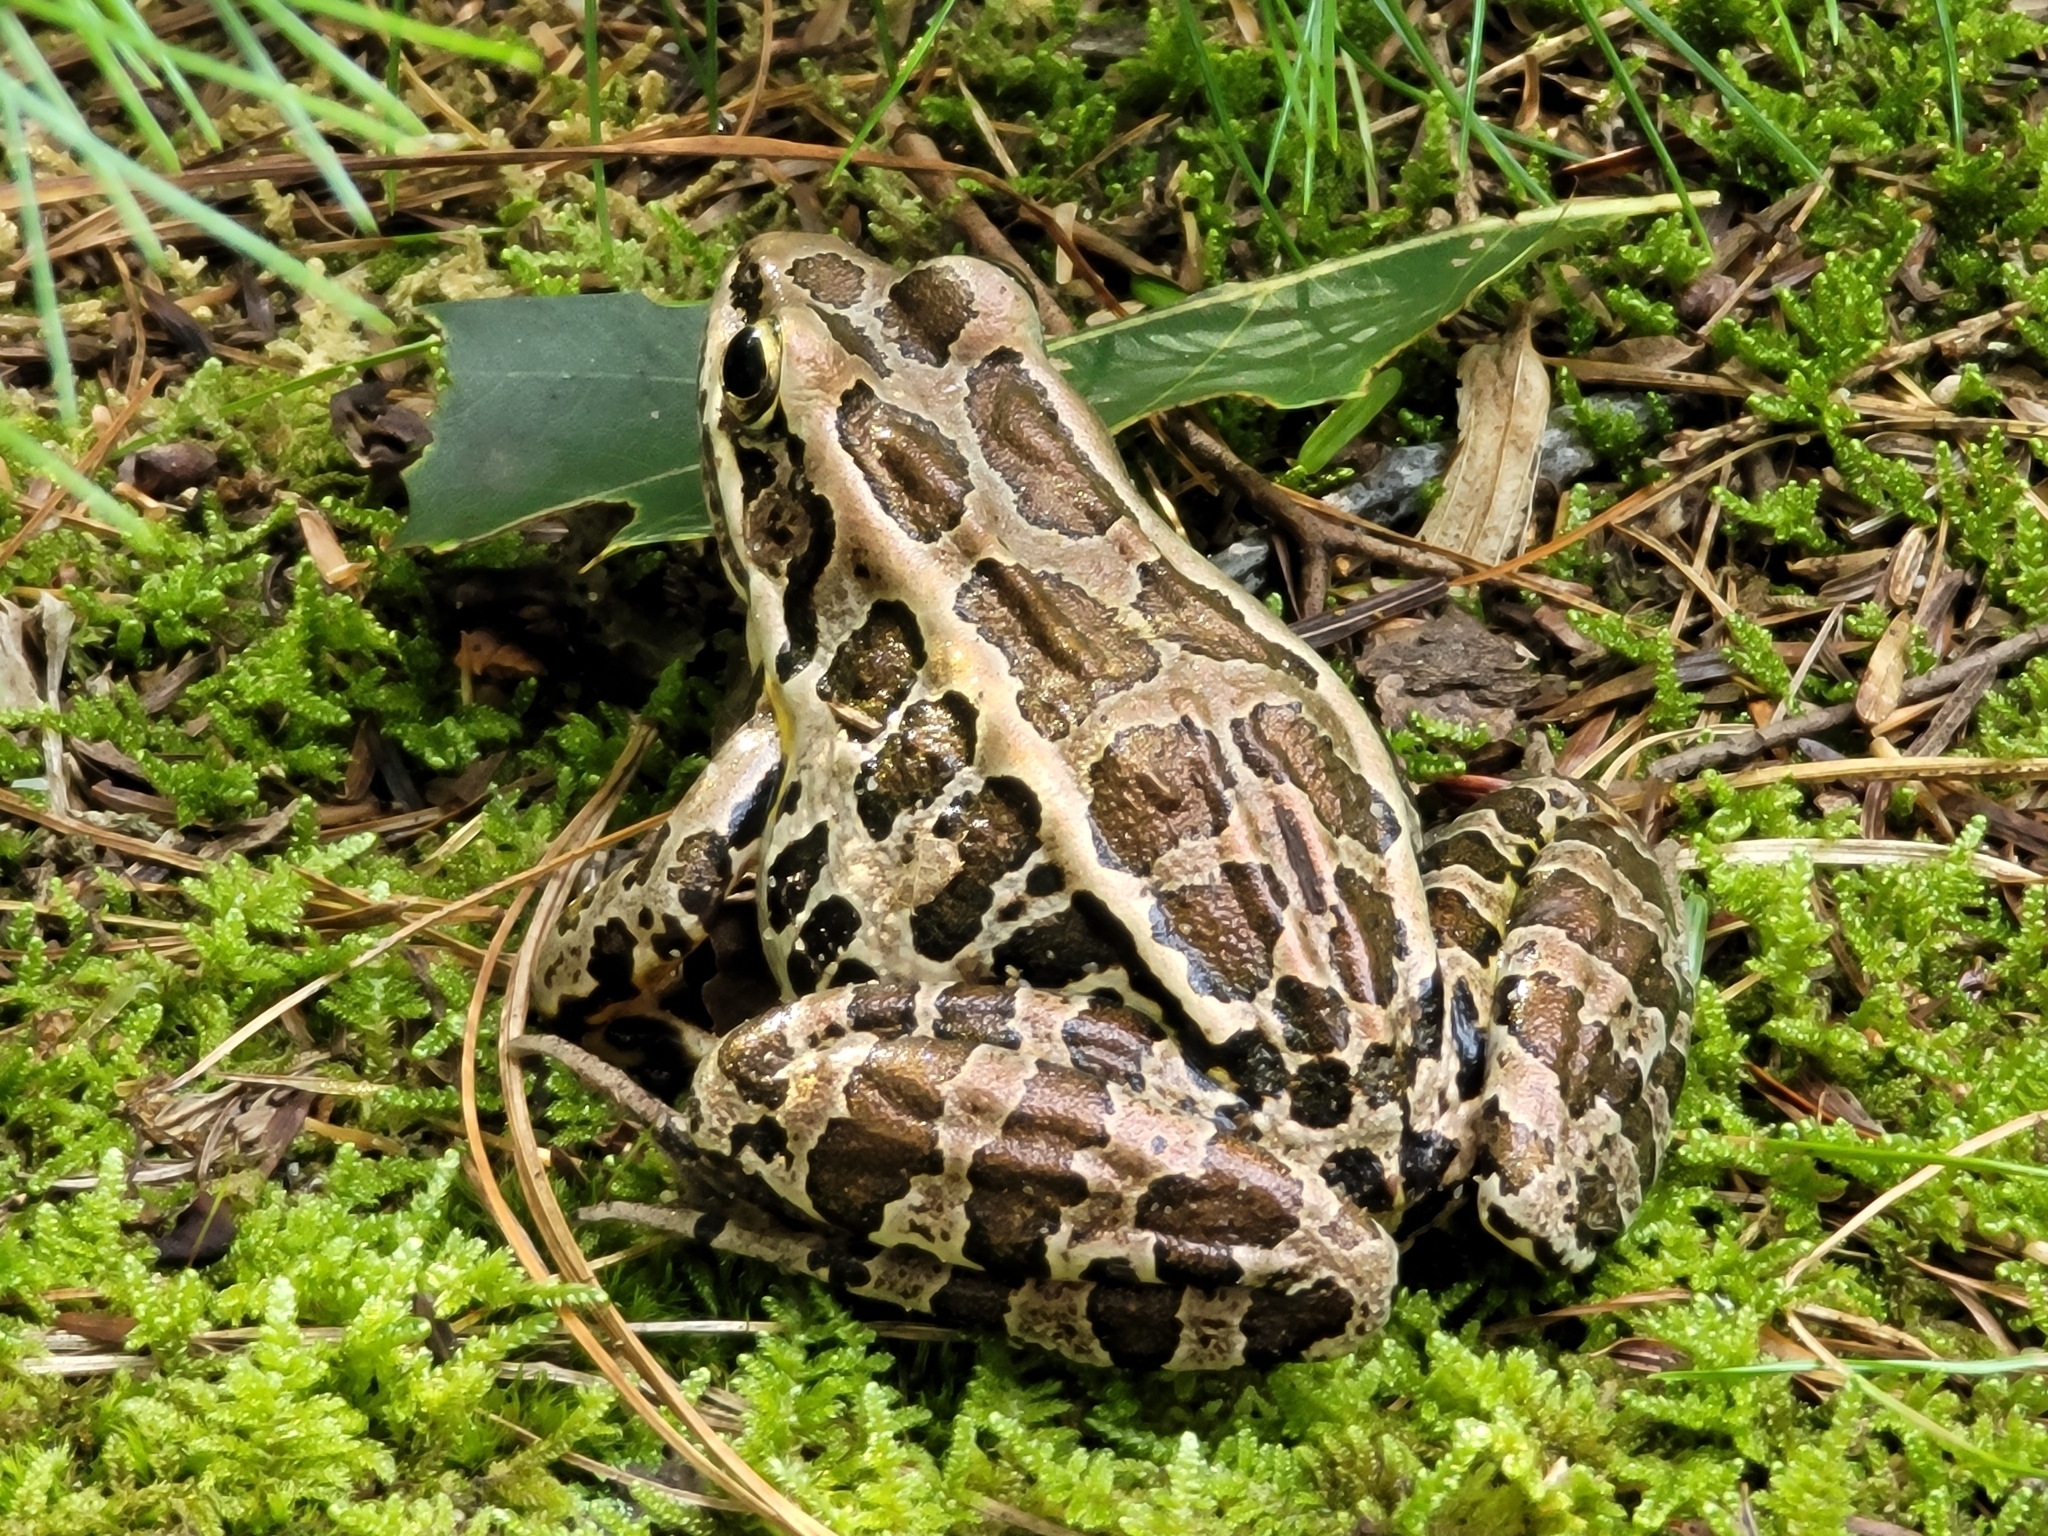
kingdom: Animalia
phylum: Chordata
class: Amphibia
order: Anura
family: Ranidae
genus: Lithobates
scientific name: Lithobates palustris
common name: Pickerel frog
